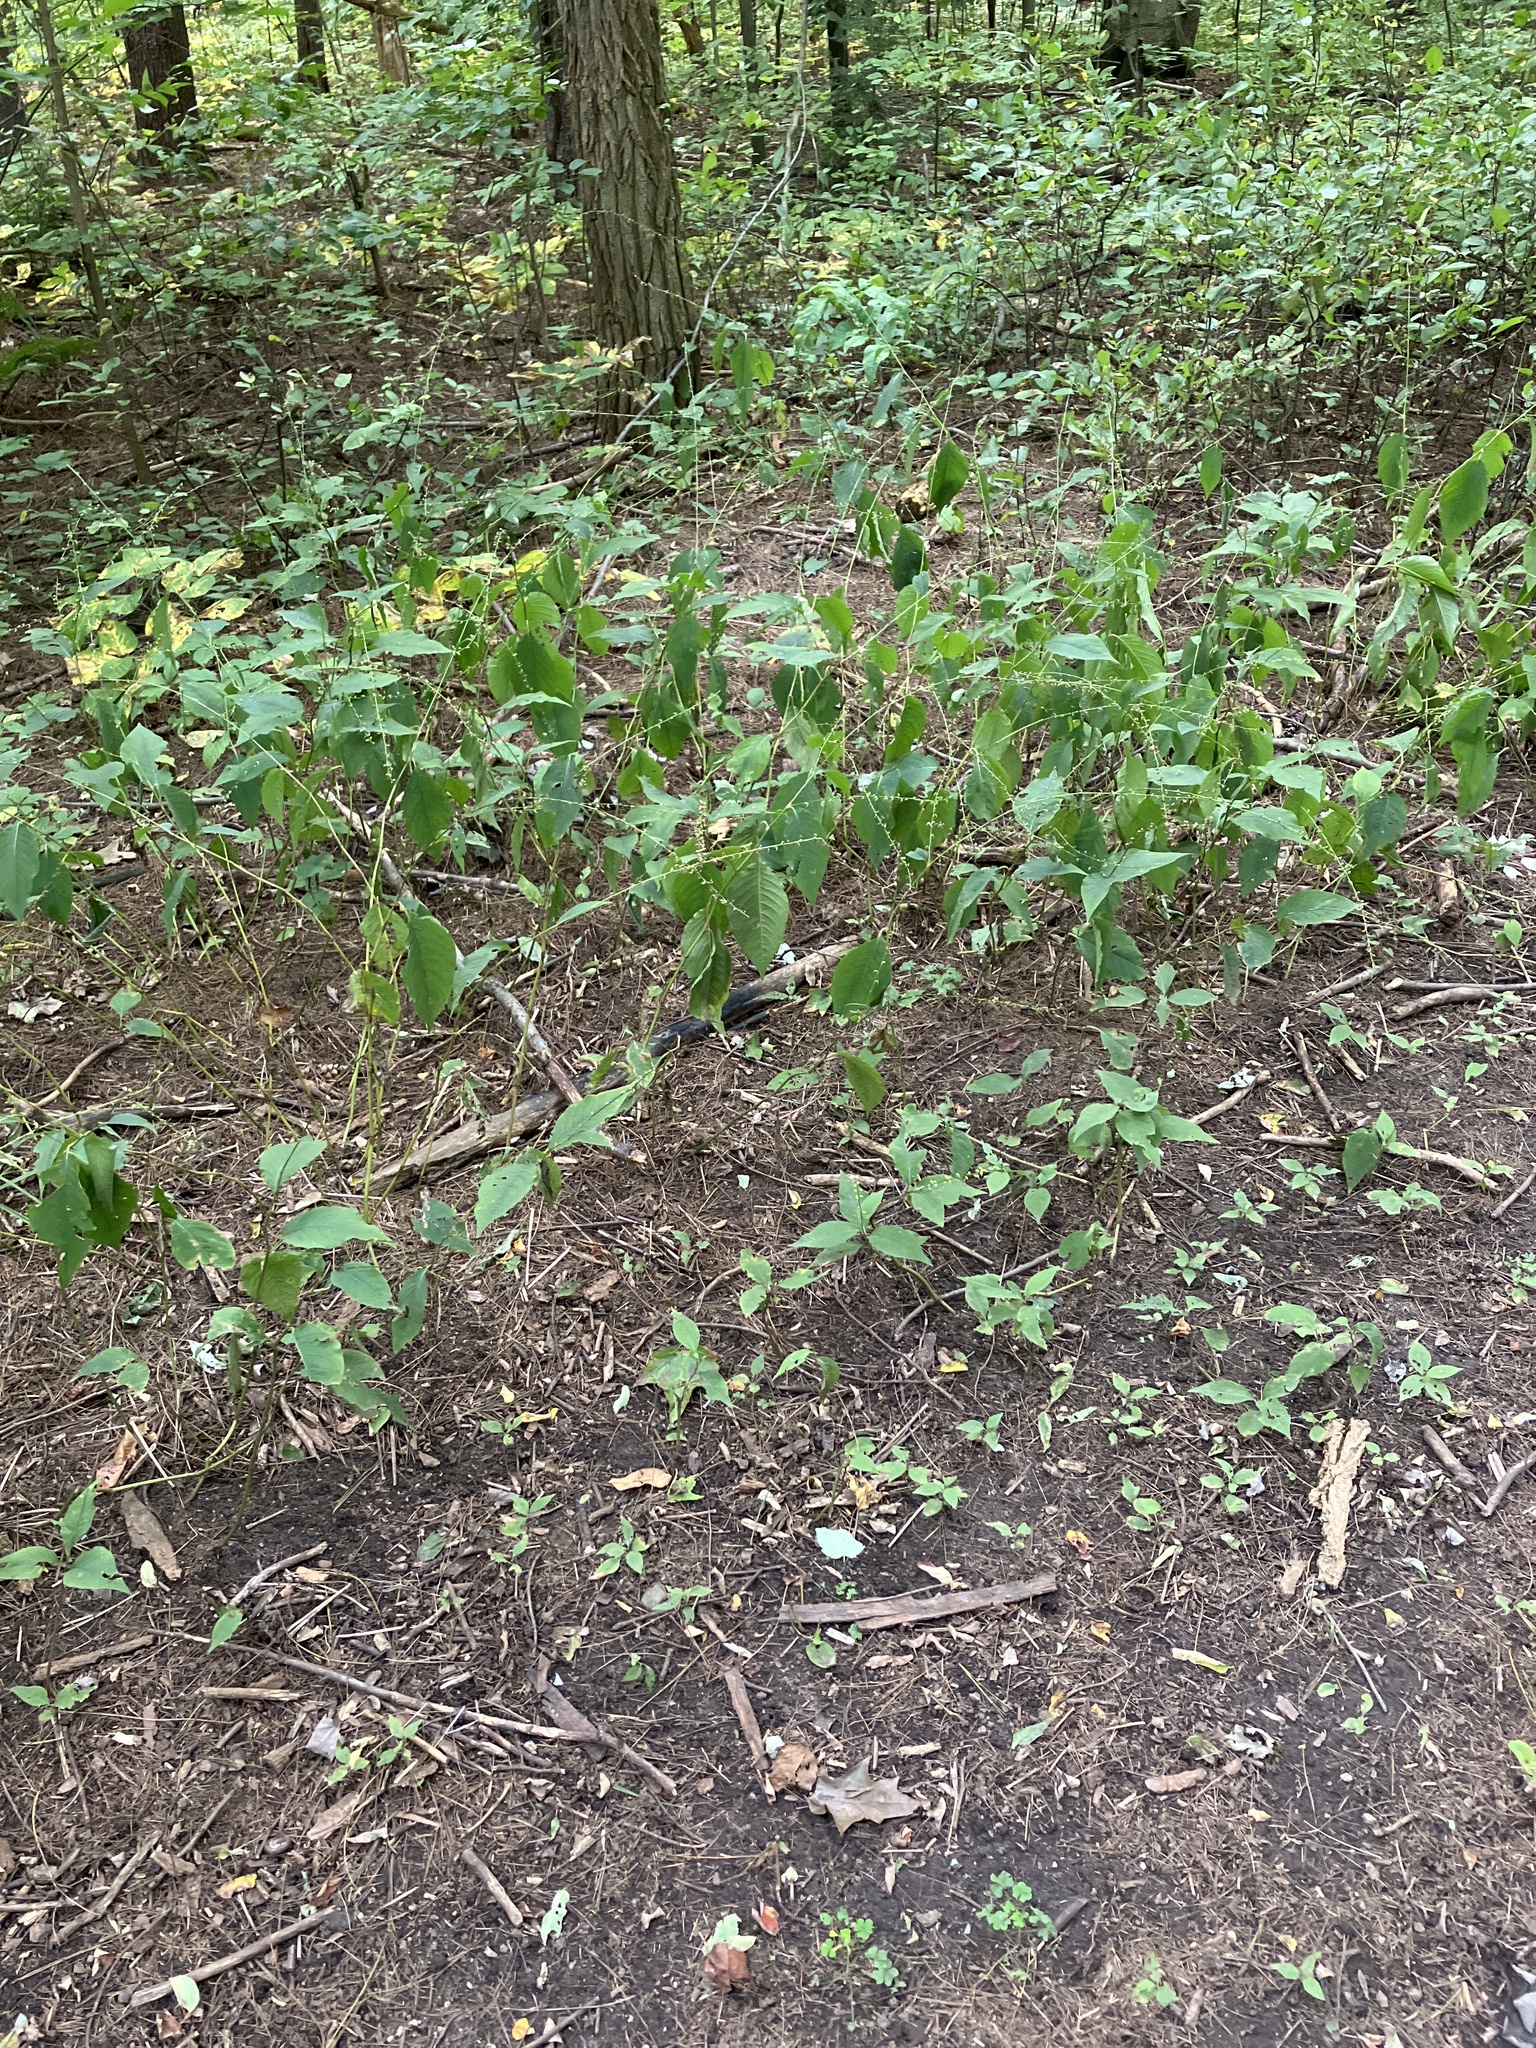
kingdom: Plantae
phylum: Tracheophyta
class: Magnoliopsida
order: Caryophyllales
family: Polygonaceae
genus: Persicaria
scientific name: Persicaria virginiana
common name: Jumpseed
